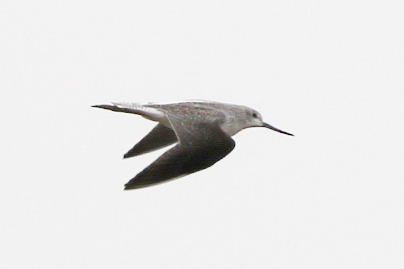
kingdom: Animalia
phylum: Chordata
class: Aves
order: Charadriiformes
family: Scolopacidae
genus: Tringa
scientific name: Tringa nebularia
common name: Common greenshank
